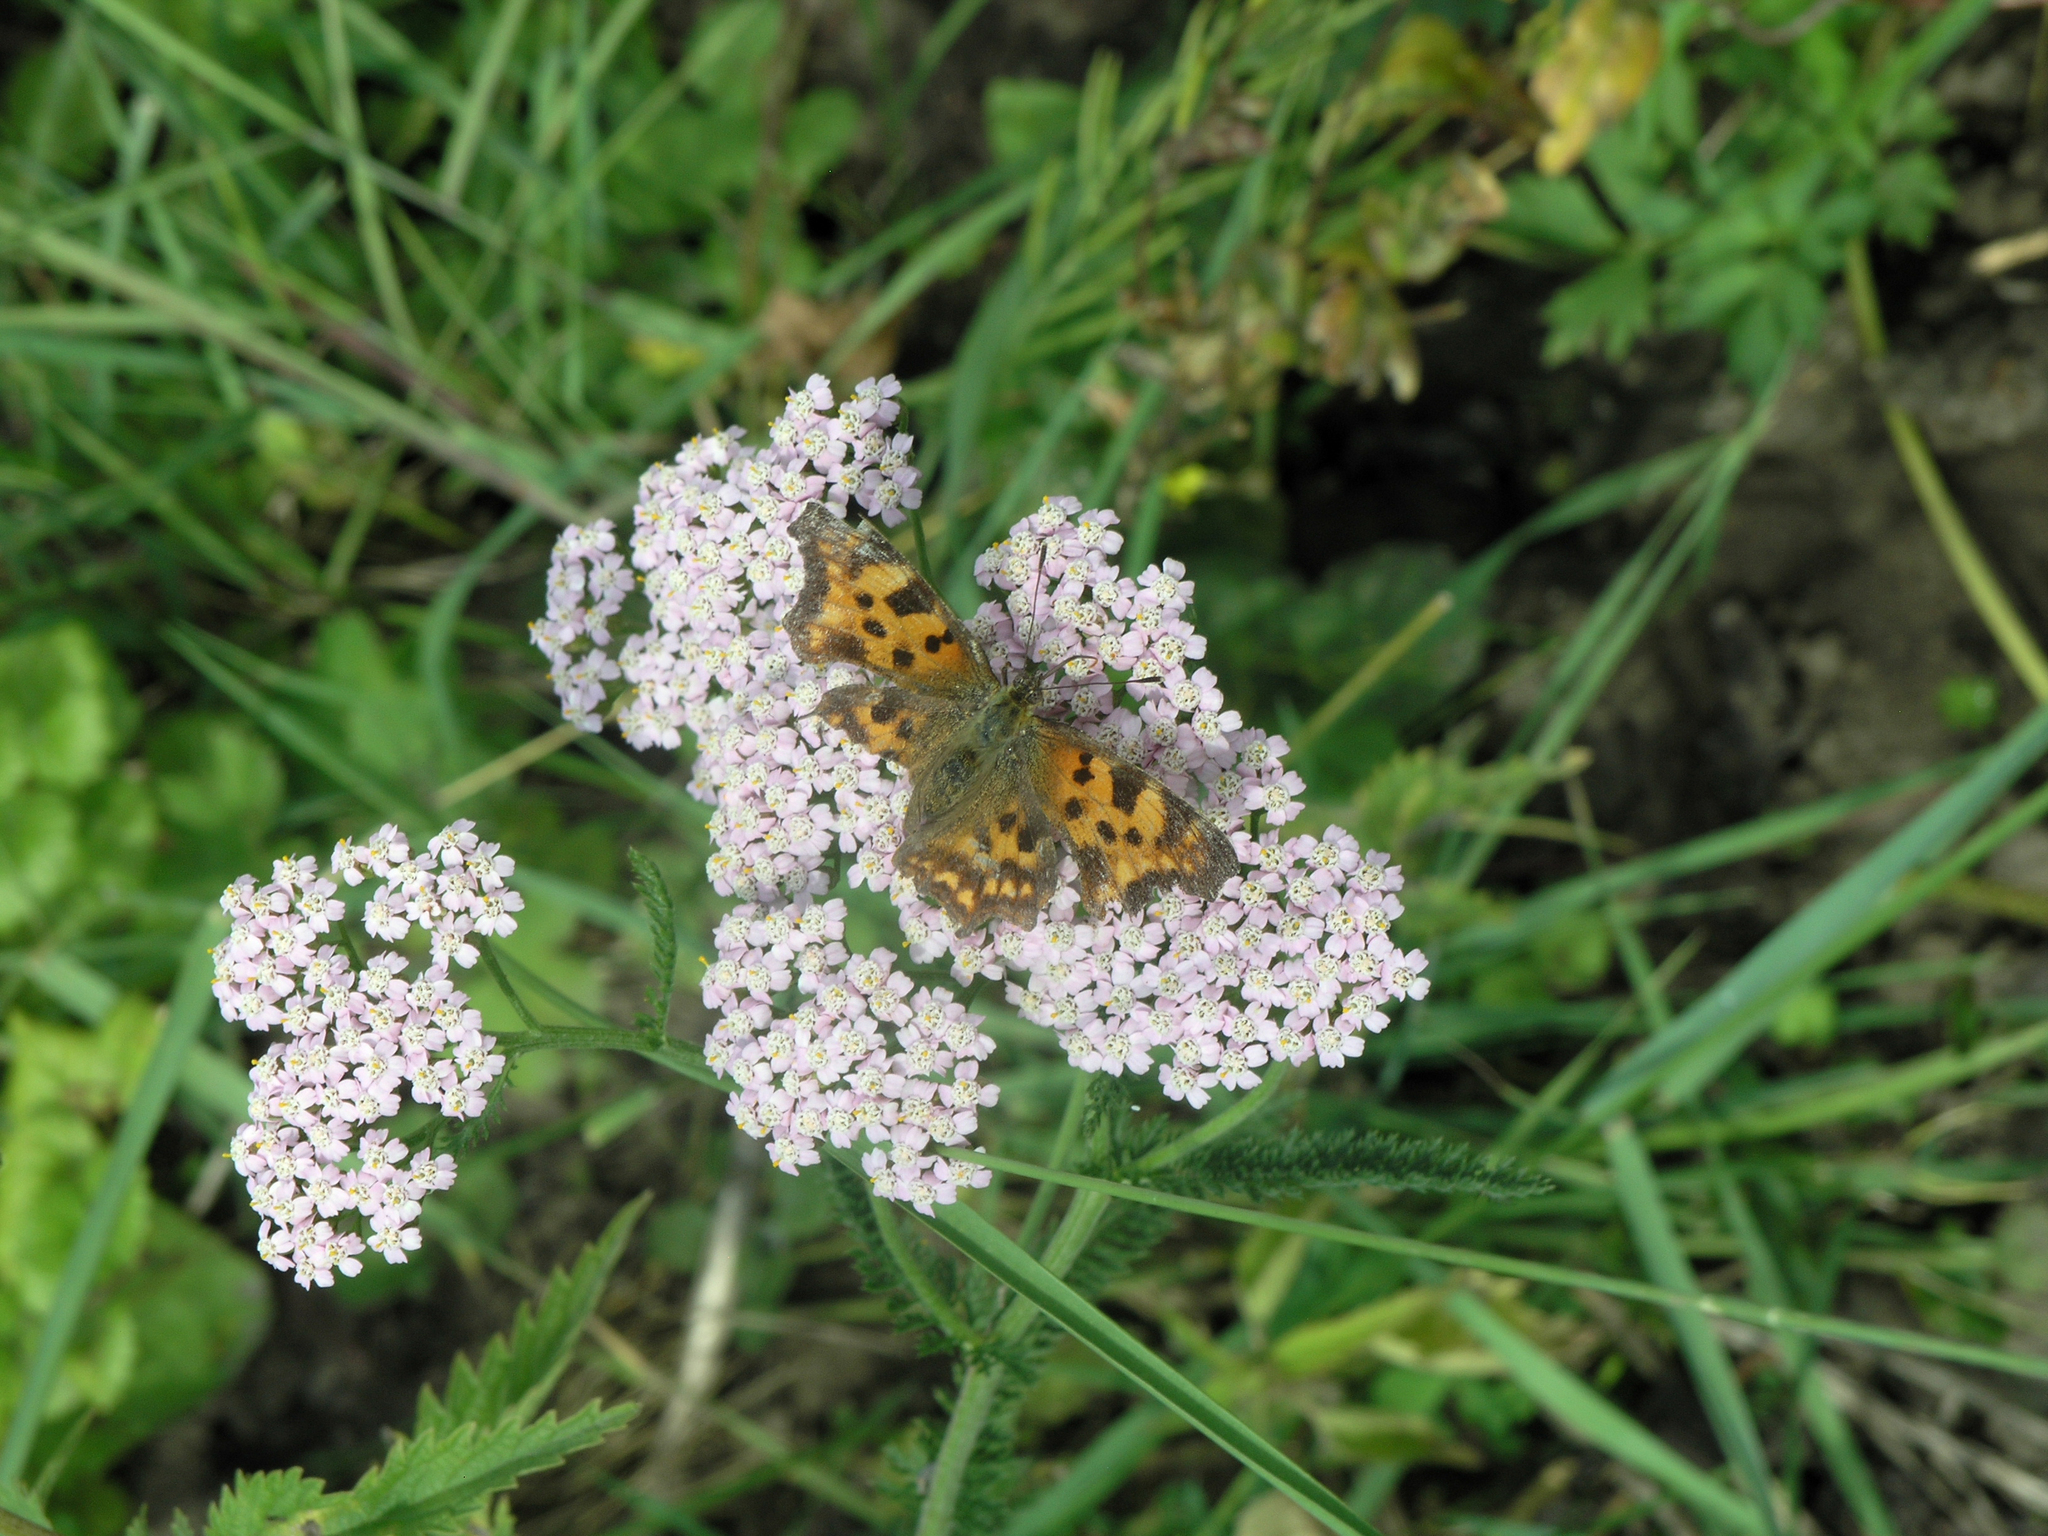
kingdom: Animalia
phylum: Arthropoda
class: Insecta
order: Lepidoptera
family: Nymphalidae
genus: Polygonia
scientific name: Polygonia c-album
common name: Comma
